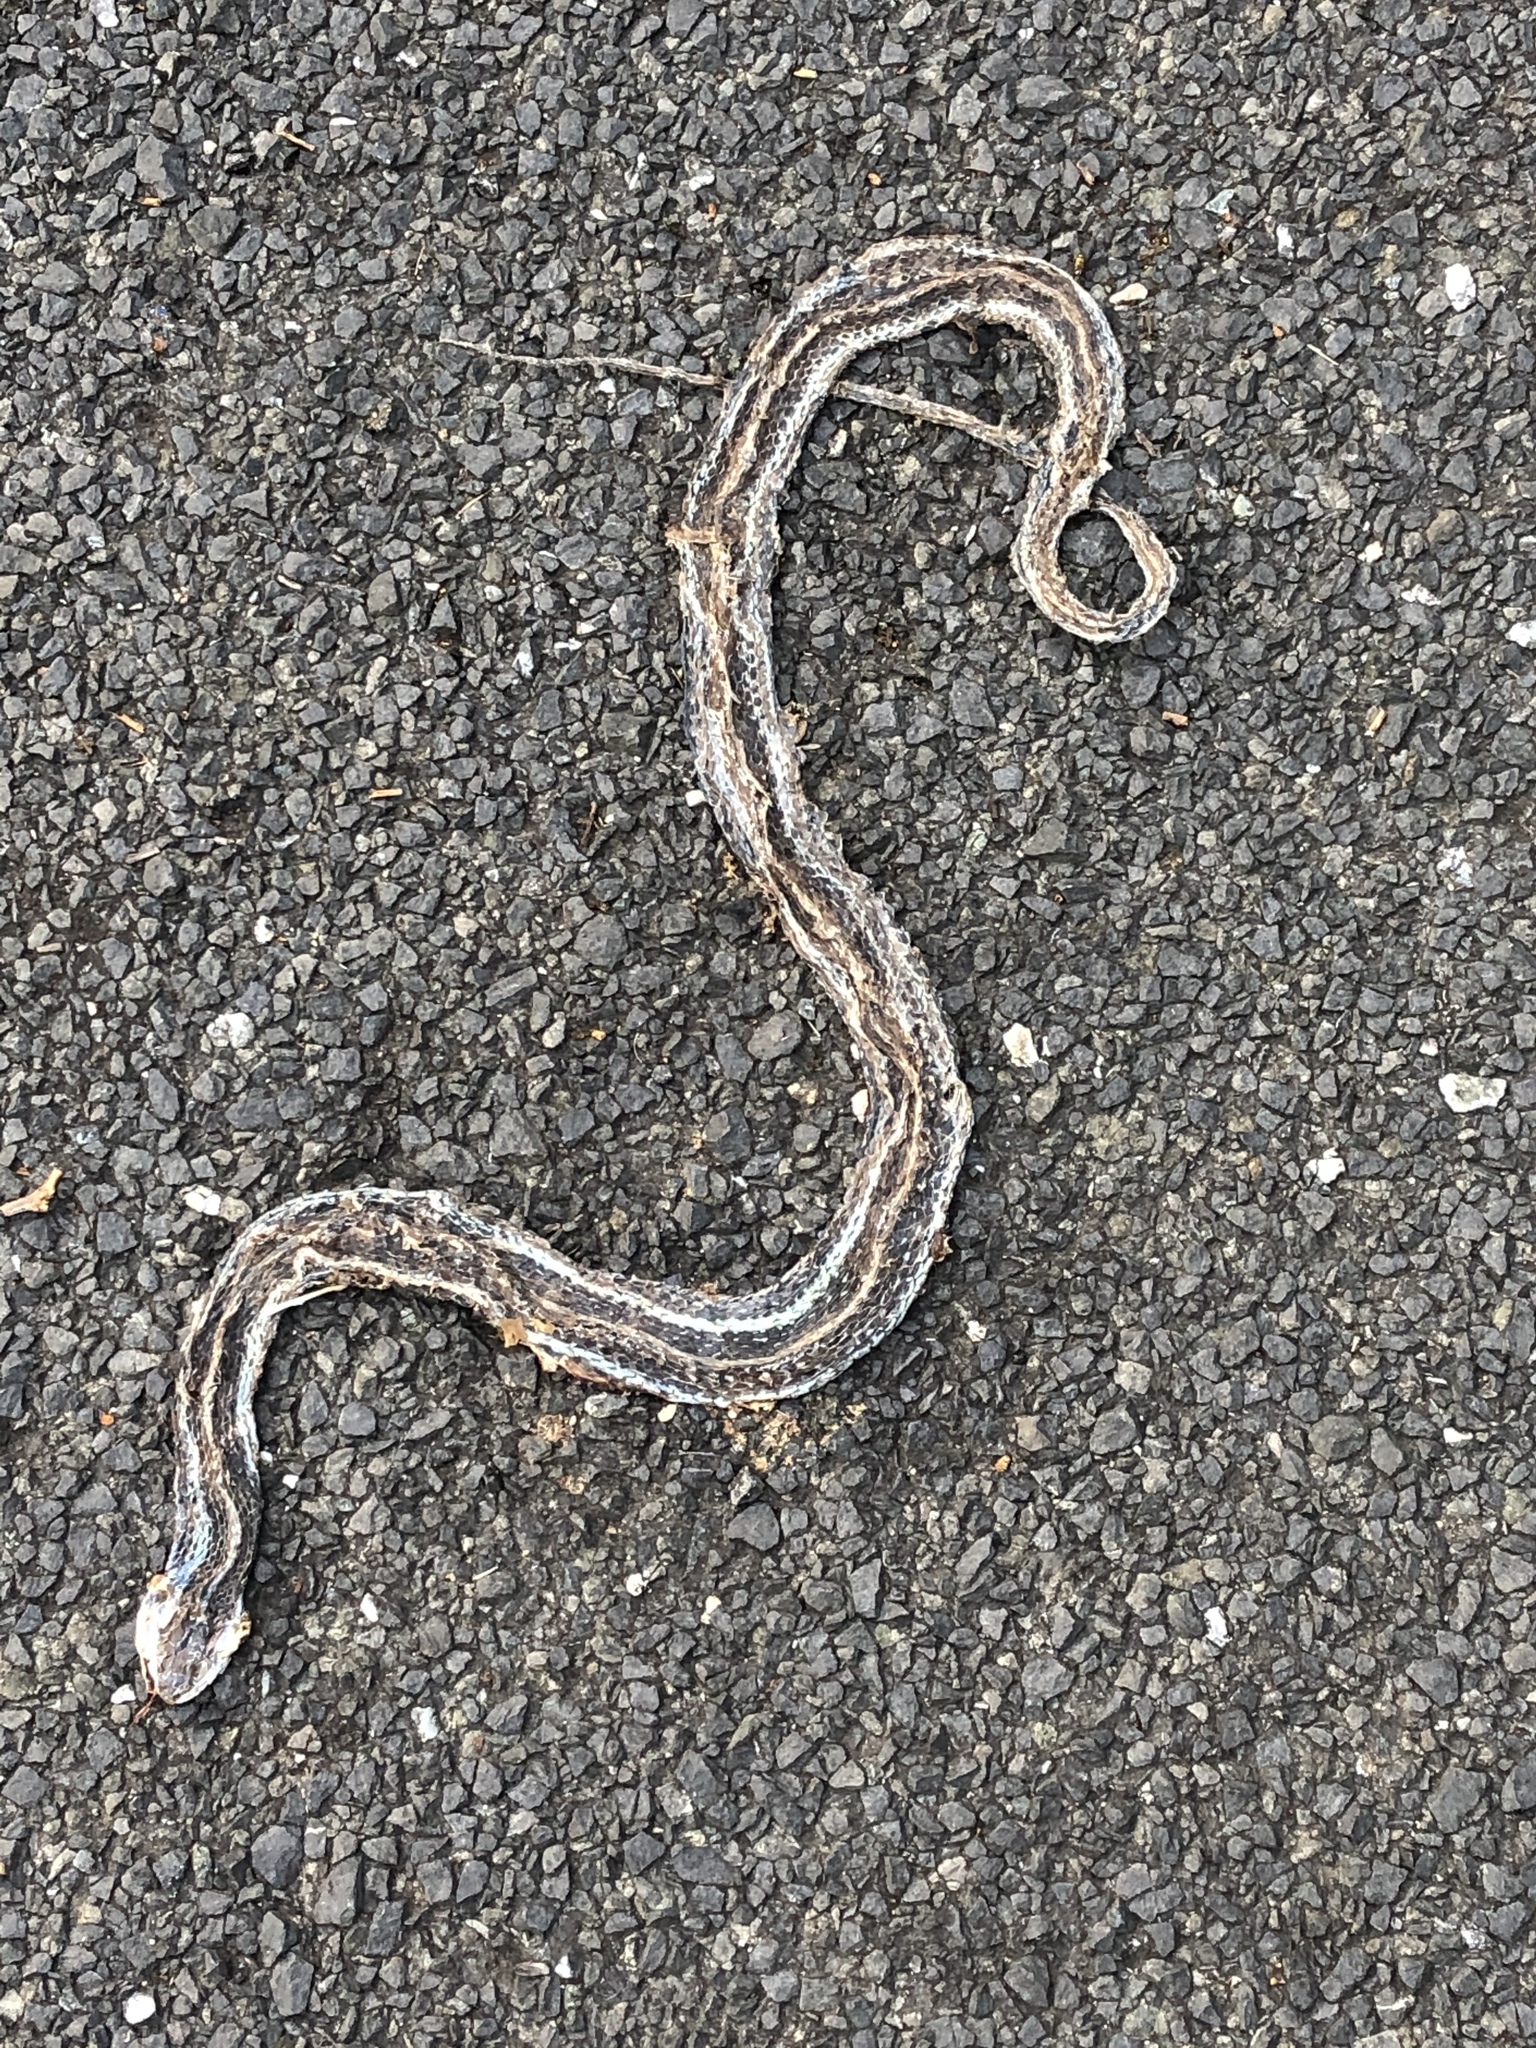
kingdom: Animalia
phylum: Chordata
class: Squamata
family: Colubridae
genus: Thamnophis
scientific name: Thamnophis proximus
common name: Western ribbon snake
